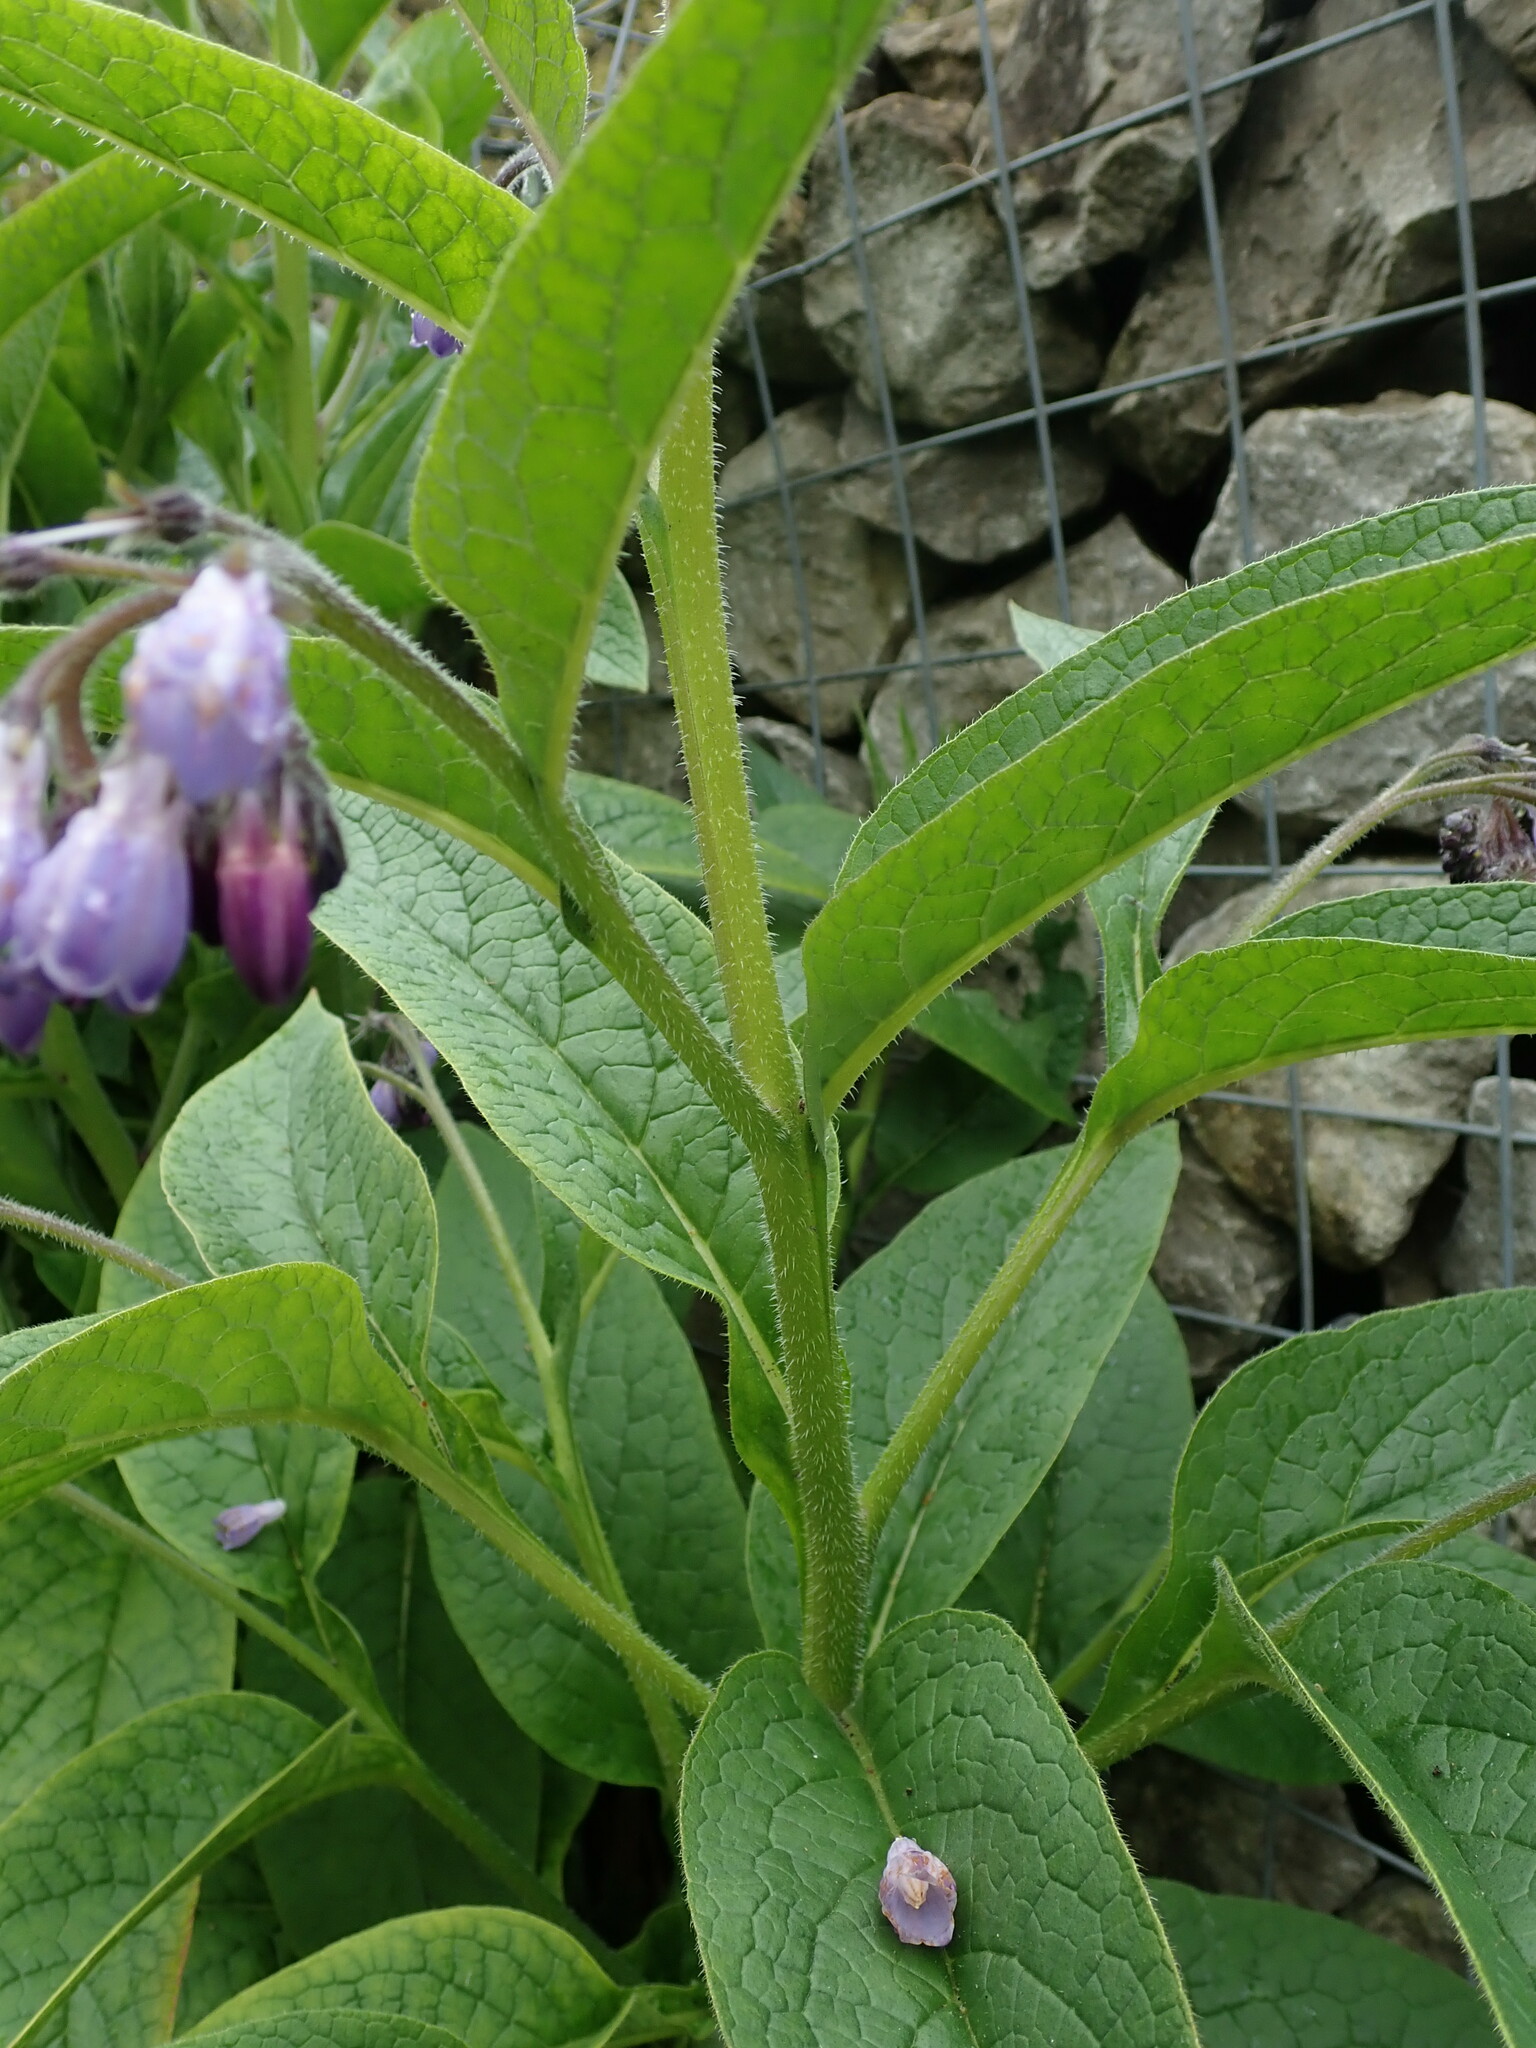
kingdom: Plantae
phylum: Tracheophyta
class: Magnoliopsida
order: Boraginales
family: Boraginaceae
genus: Symphytum
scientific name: Symphytum uplandicum
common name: Russian comfrey
